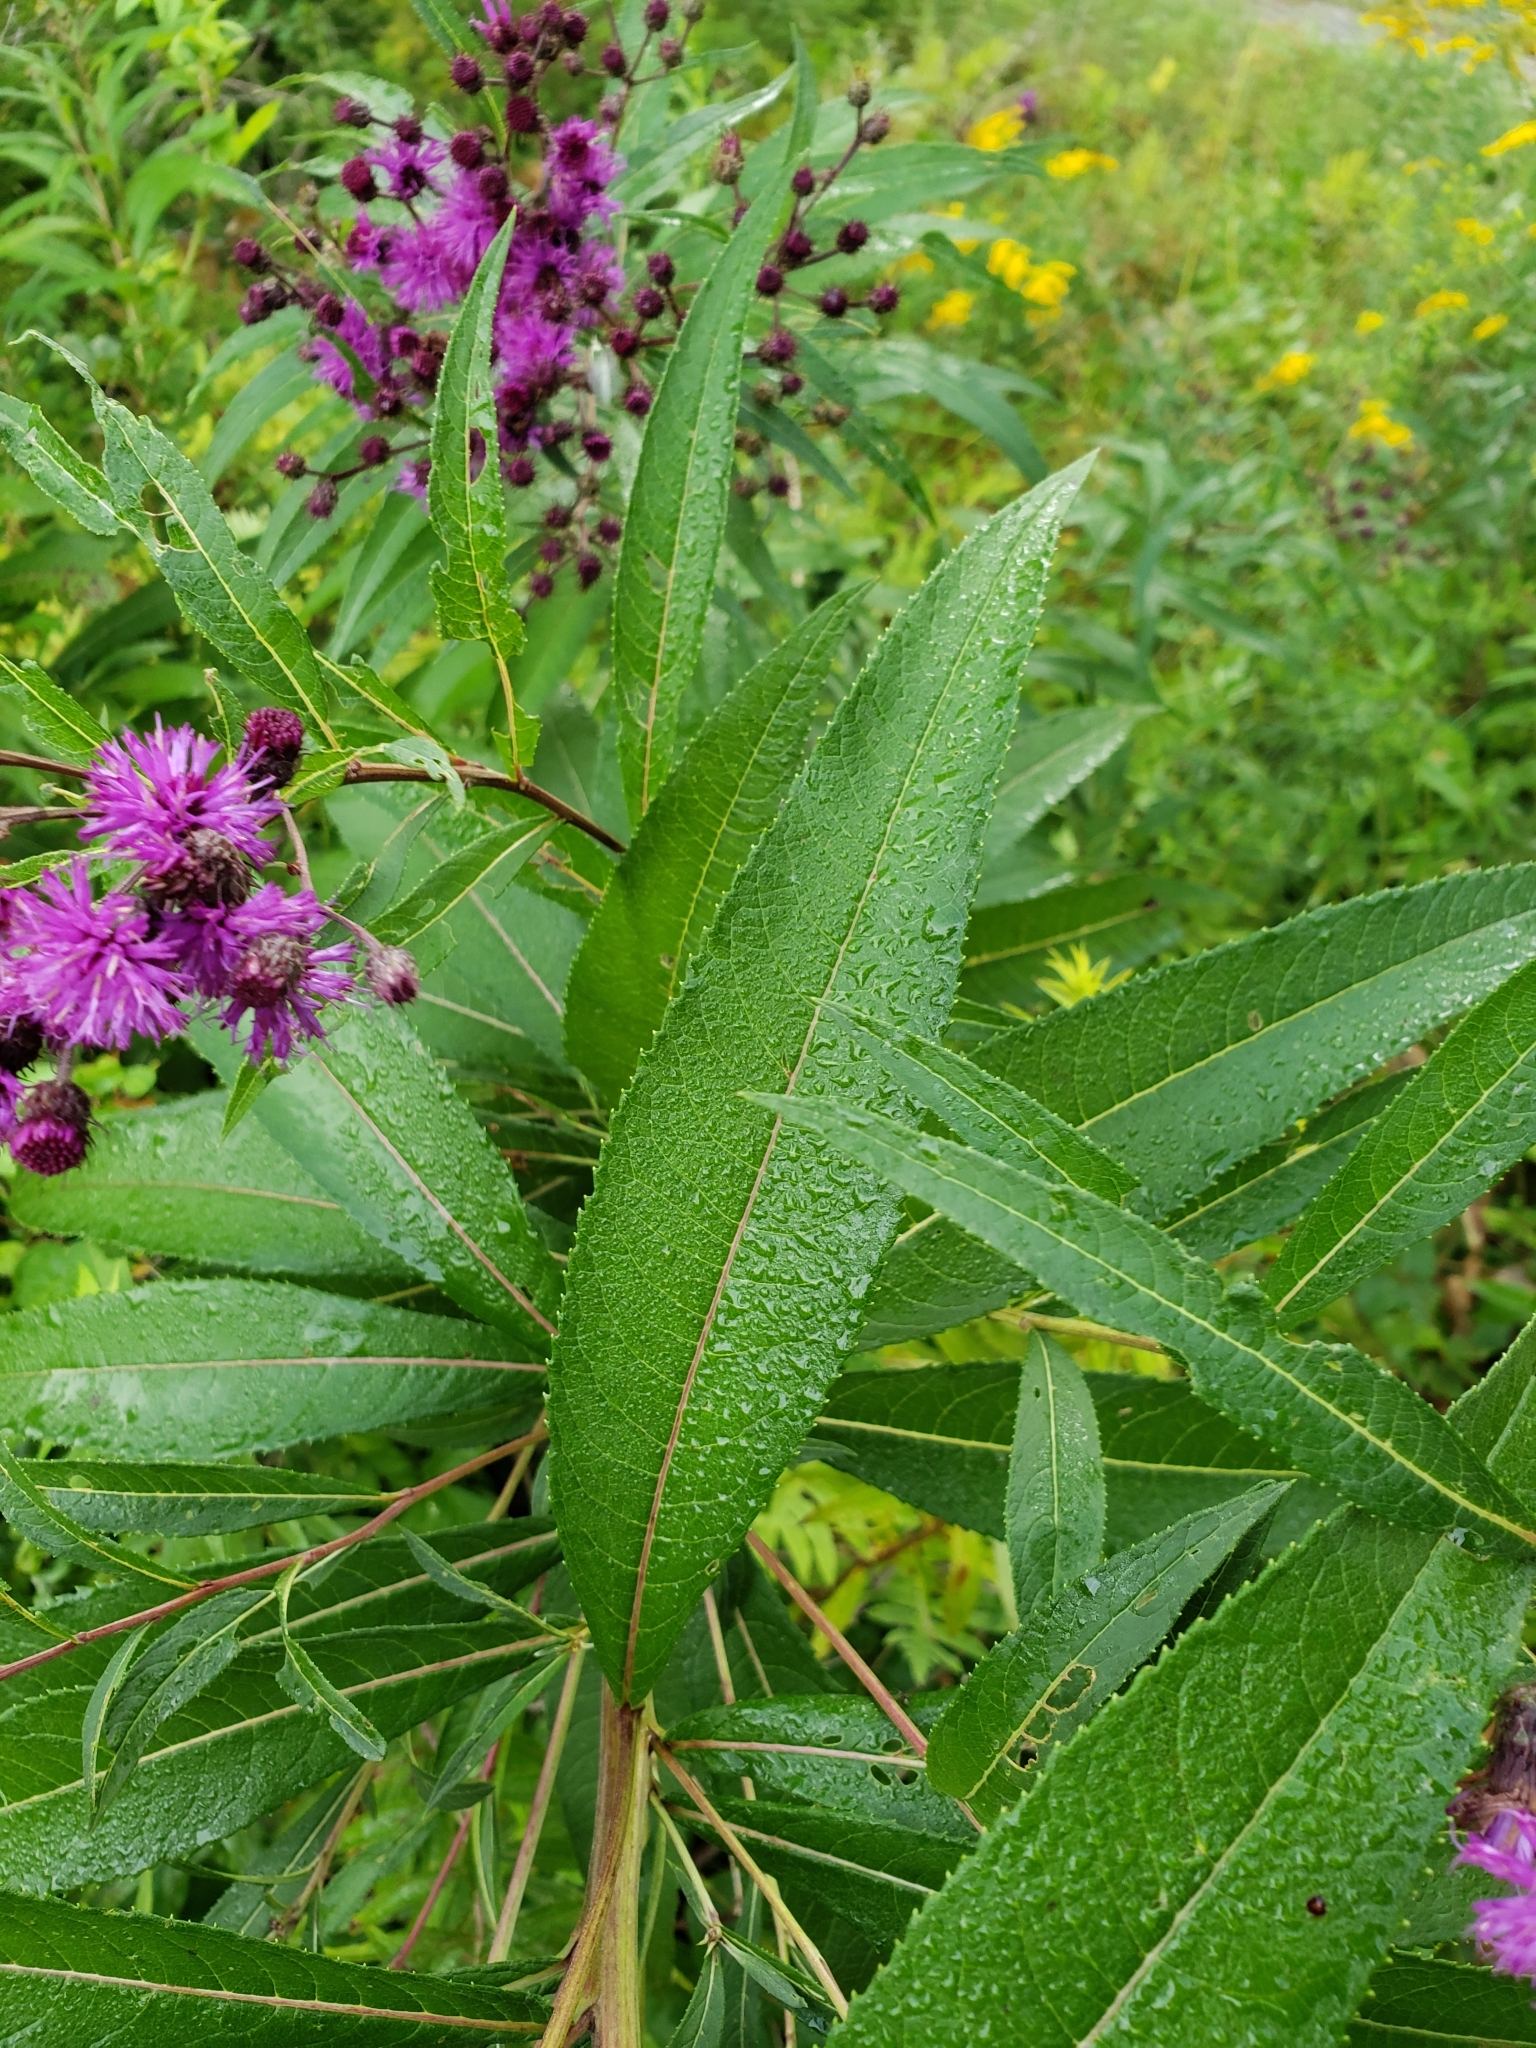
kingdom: Plantae
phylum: Tracheophyta
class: Magnoliopsida
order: Asterales
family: Asteraceae
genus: Vernonia
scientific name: Vernonia noveboracensis
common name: New york ironweed
